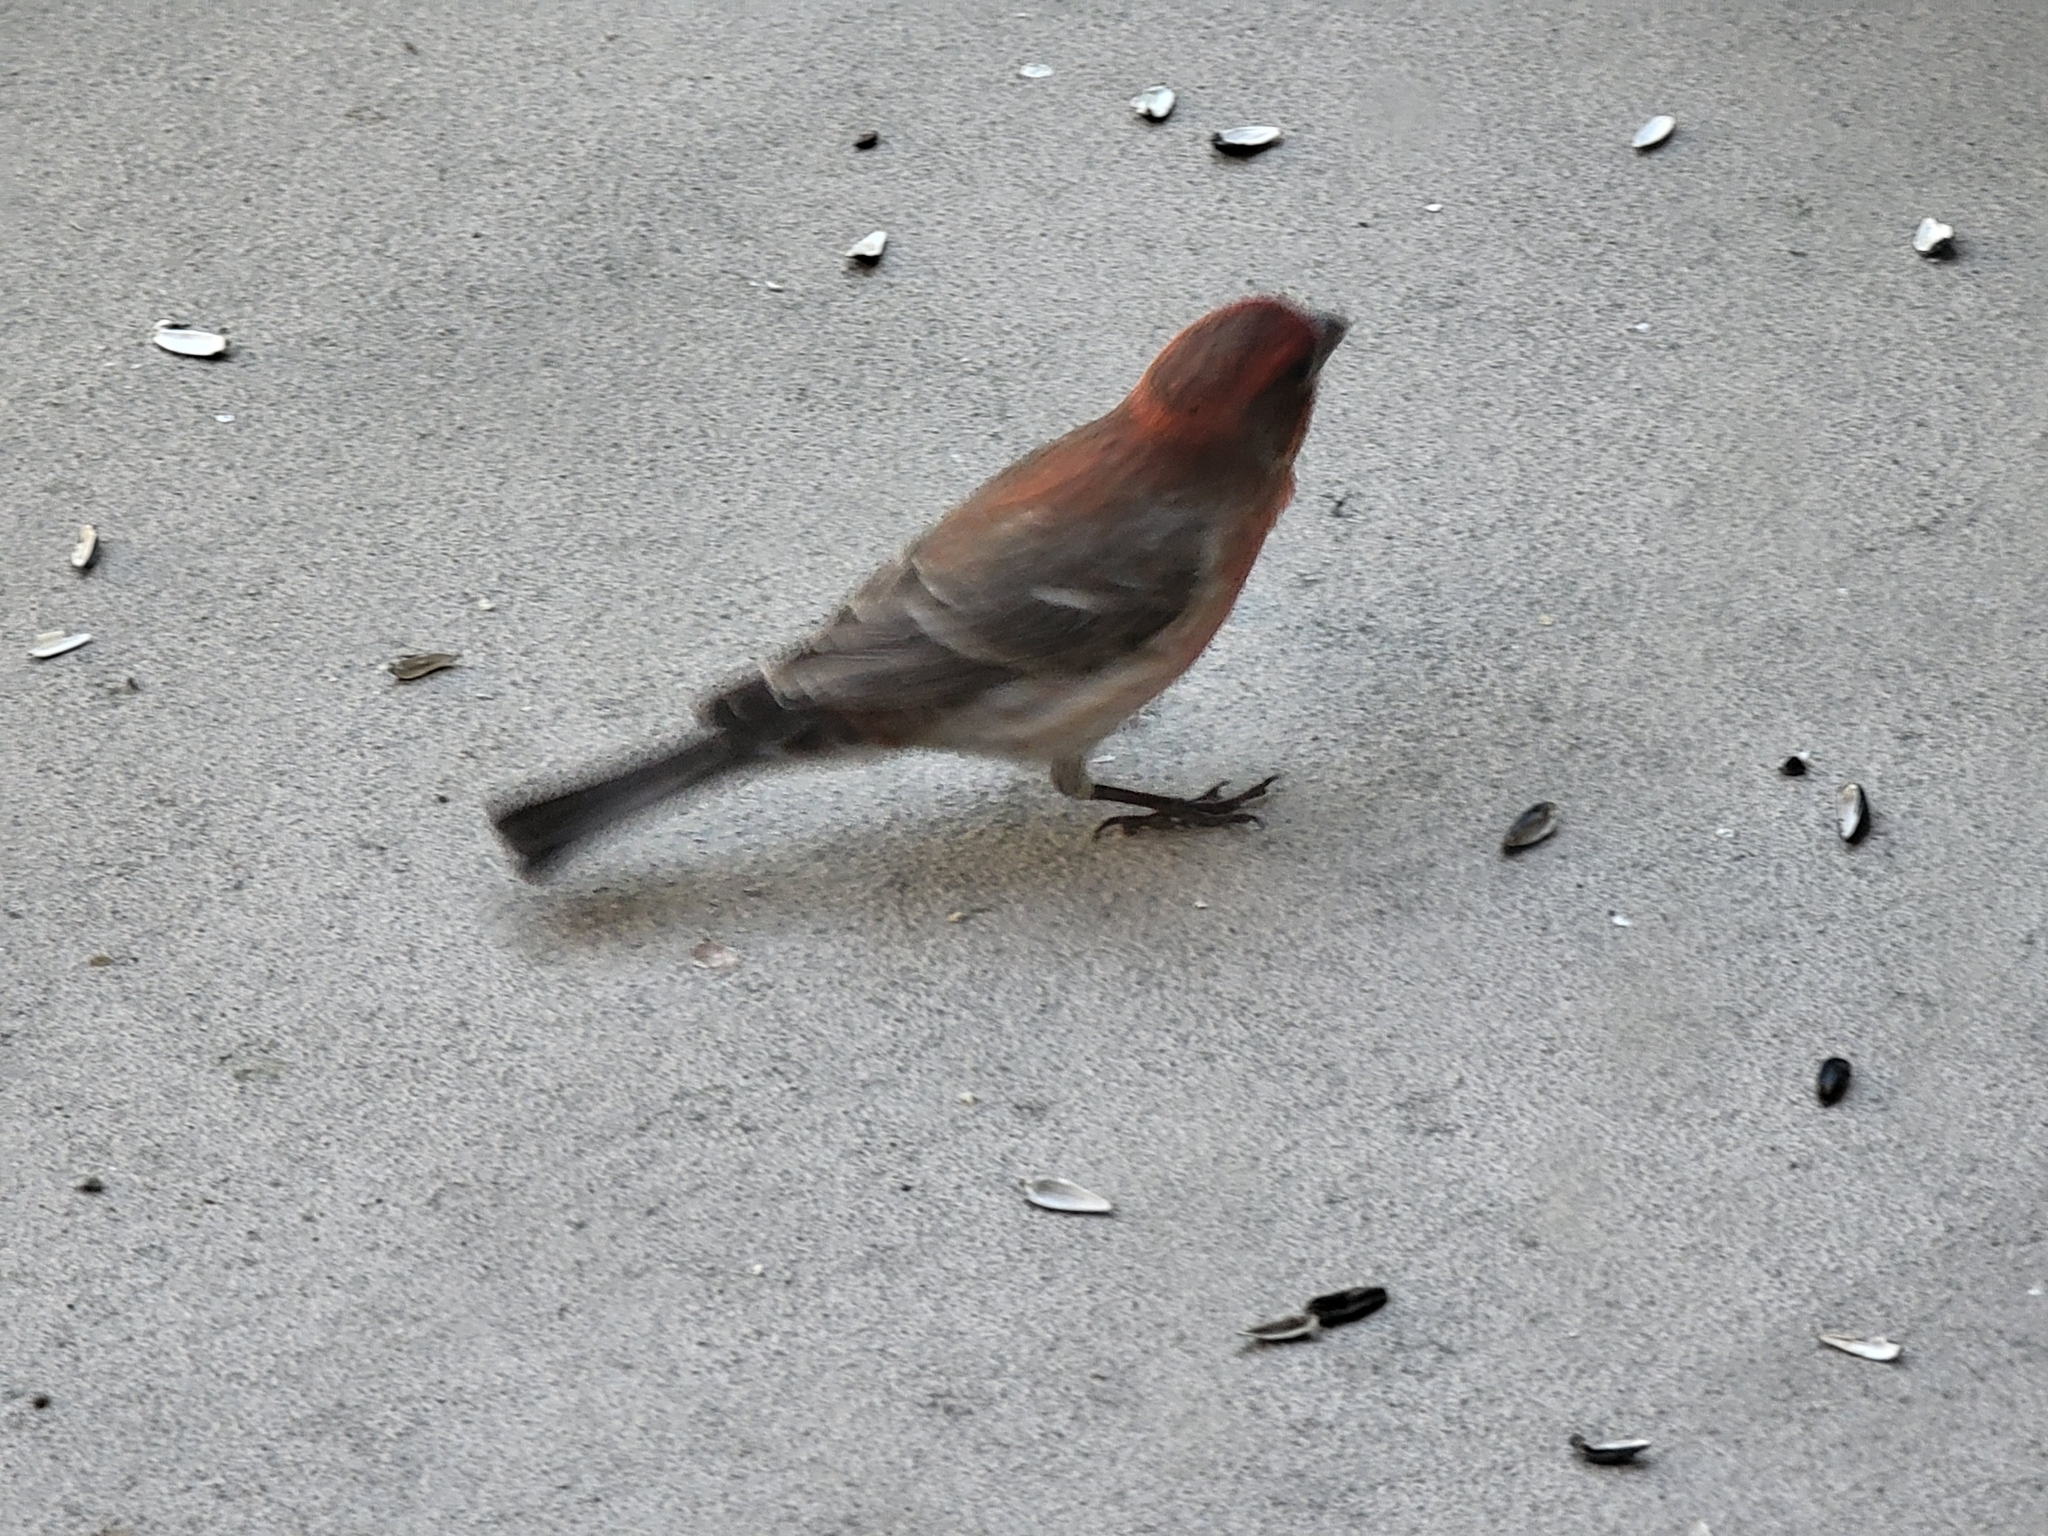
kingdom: Animalia
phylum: Chordata
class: Aves
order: Passeriformes
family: Fringillidae
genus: Haemorhous
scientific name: Haemorhous mexicanus
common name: House finch
